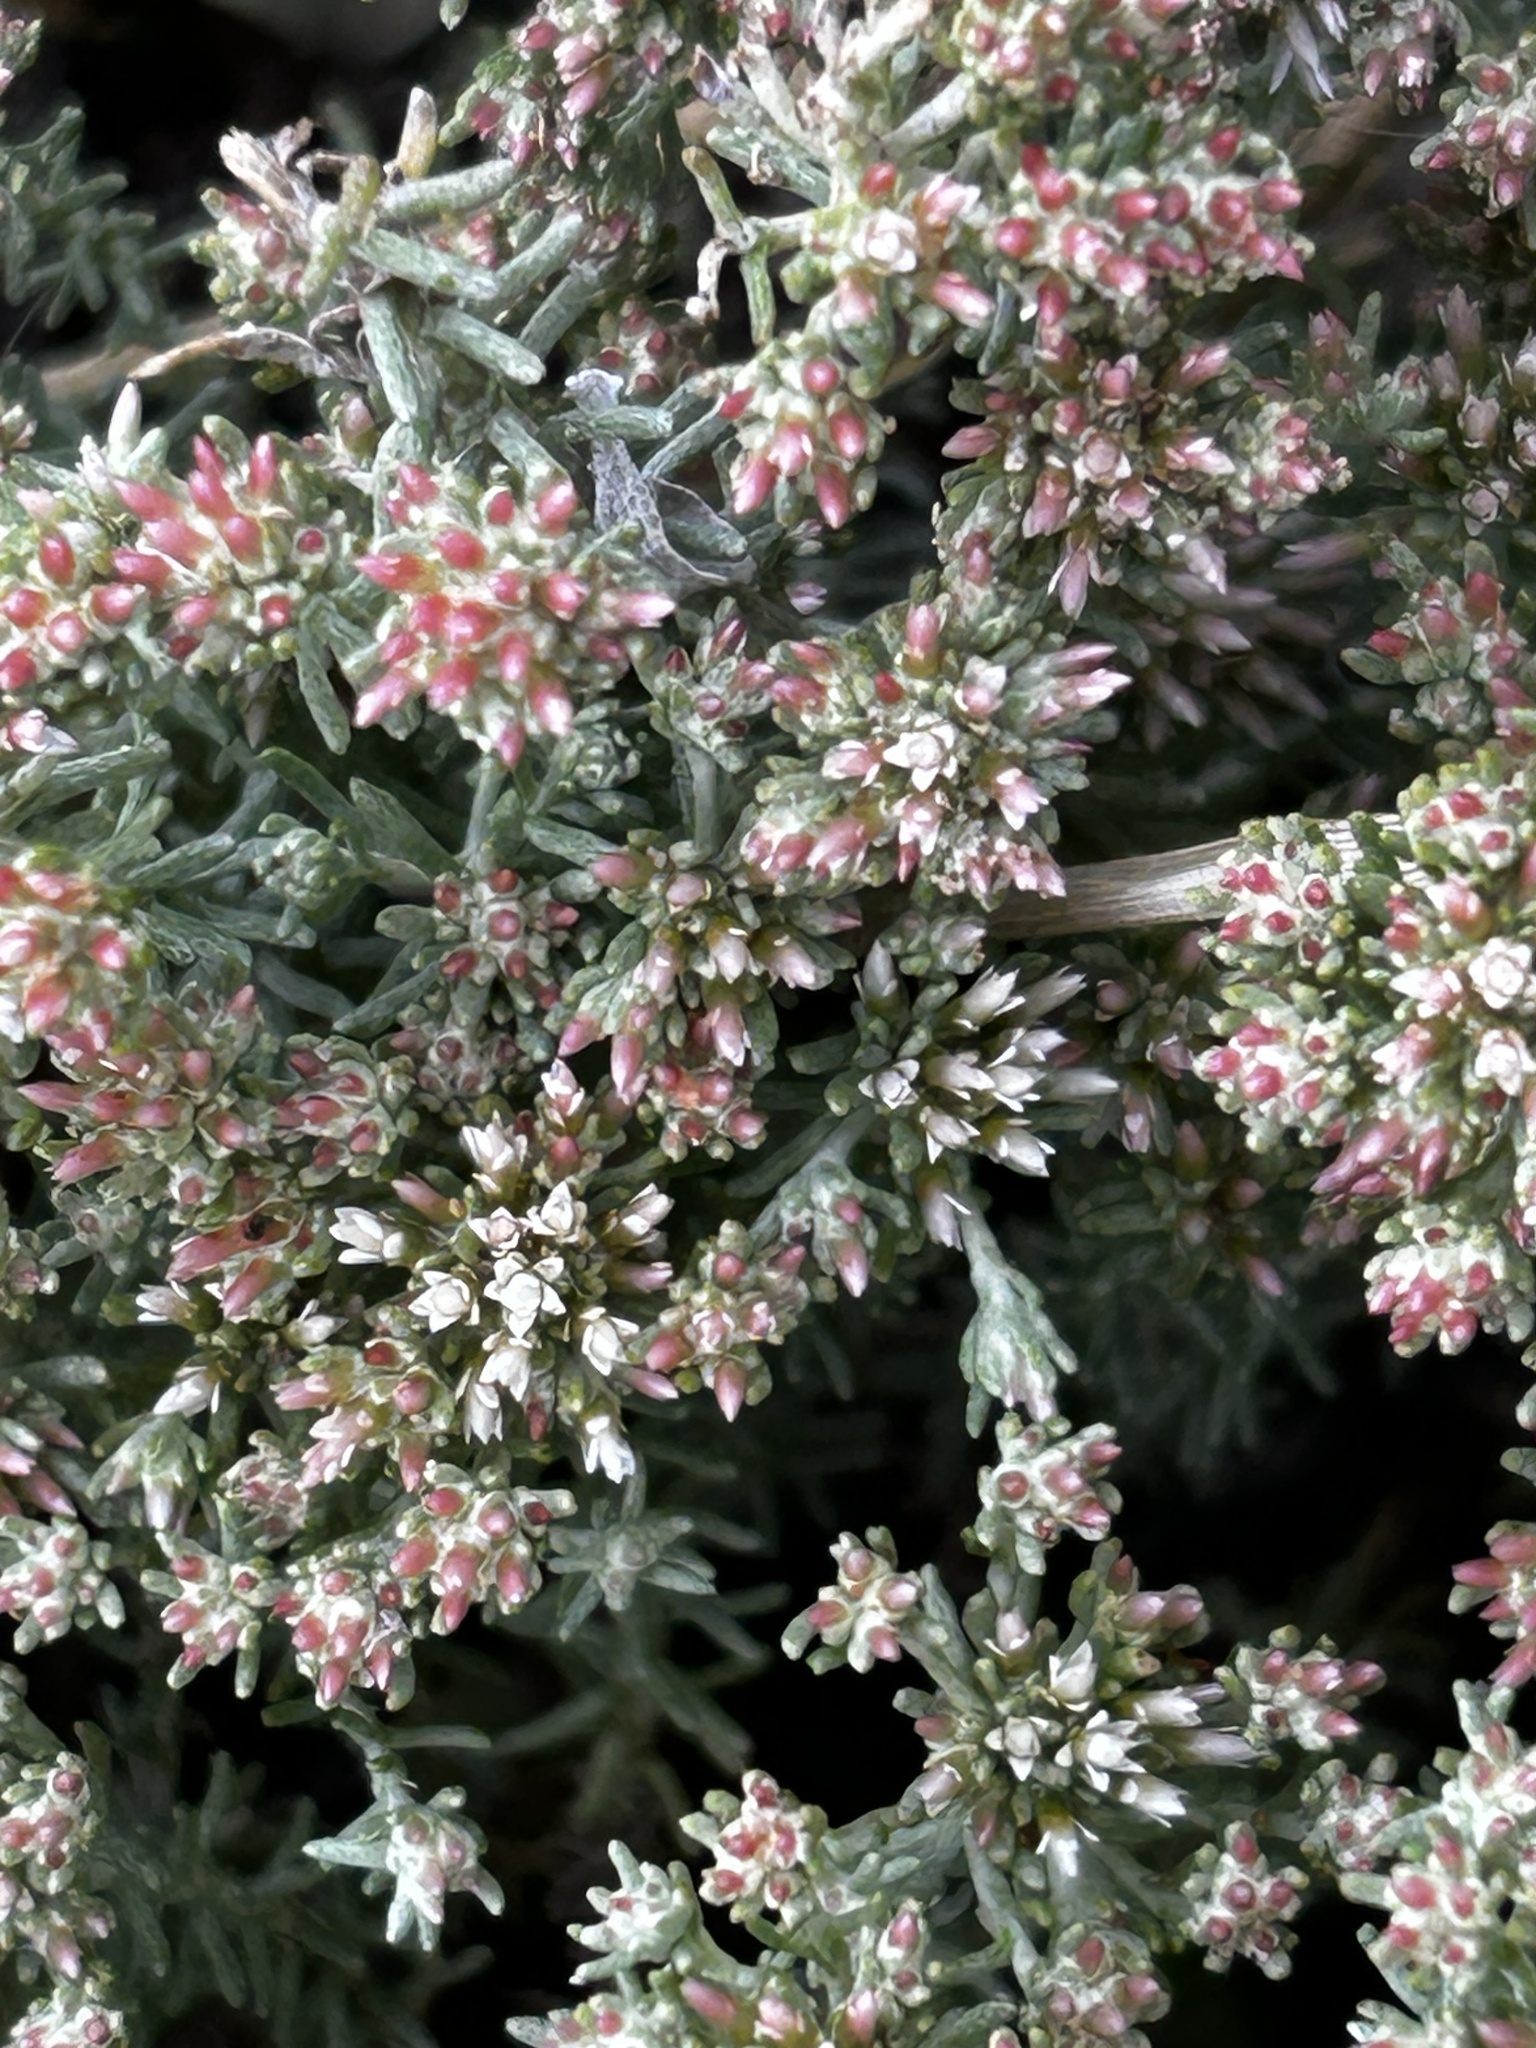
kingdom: Plantae
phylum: Tracheophyta
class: Magnoliopsida
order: Asterales
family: Asteraceae
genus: Helichrysum
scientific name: Helichrysum asperum
